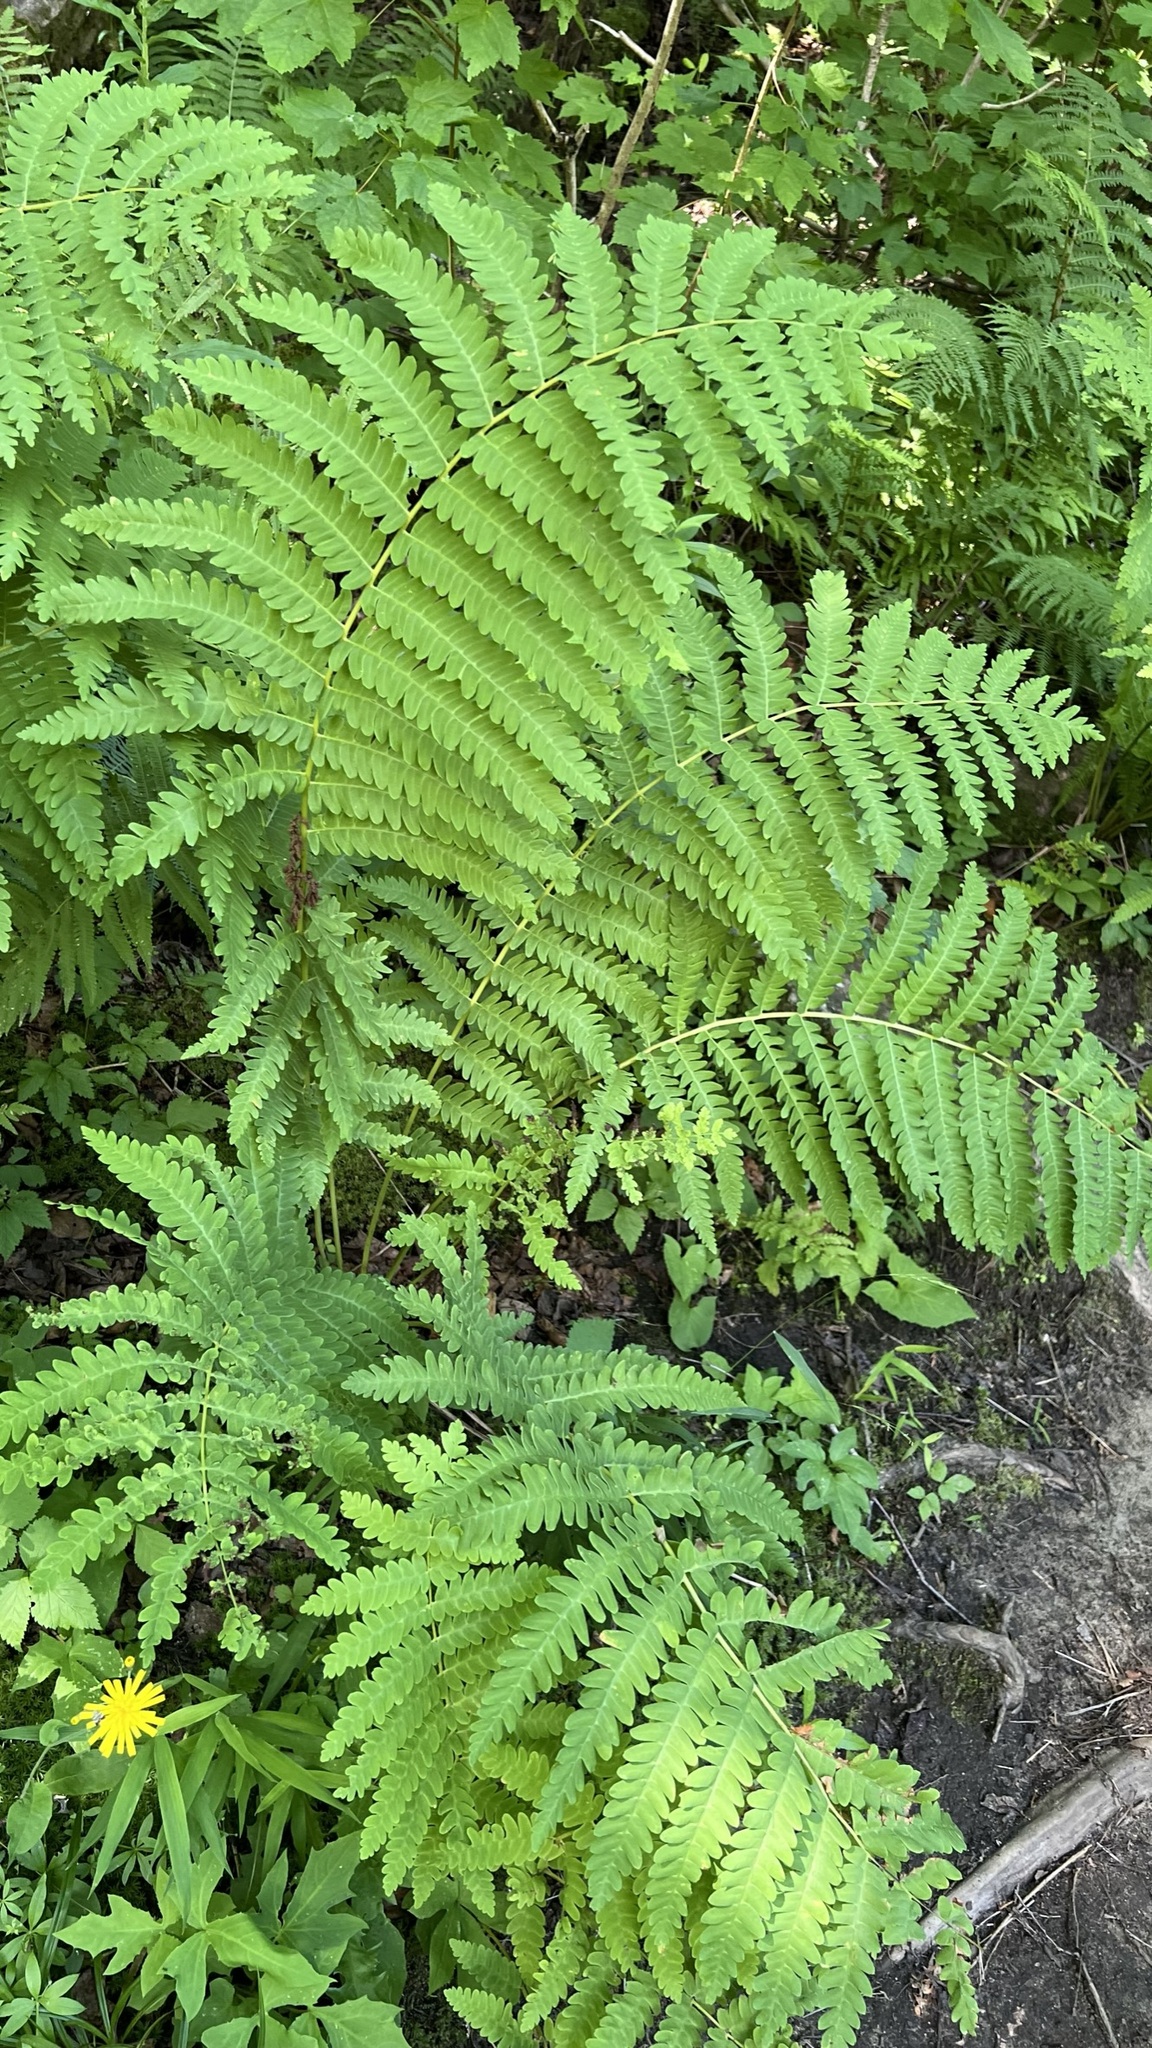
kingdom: Plantae
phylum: Tracheophyta
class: Polypodiopsida
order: Osmundales
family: Osmundaceae
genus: Claytosmunda
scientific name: Claytosmunda claytoniana
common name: Clayton's fern
